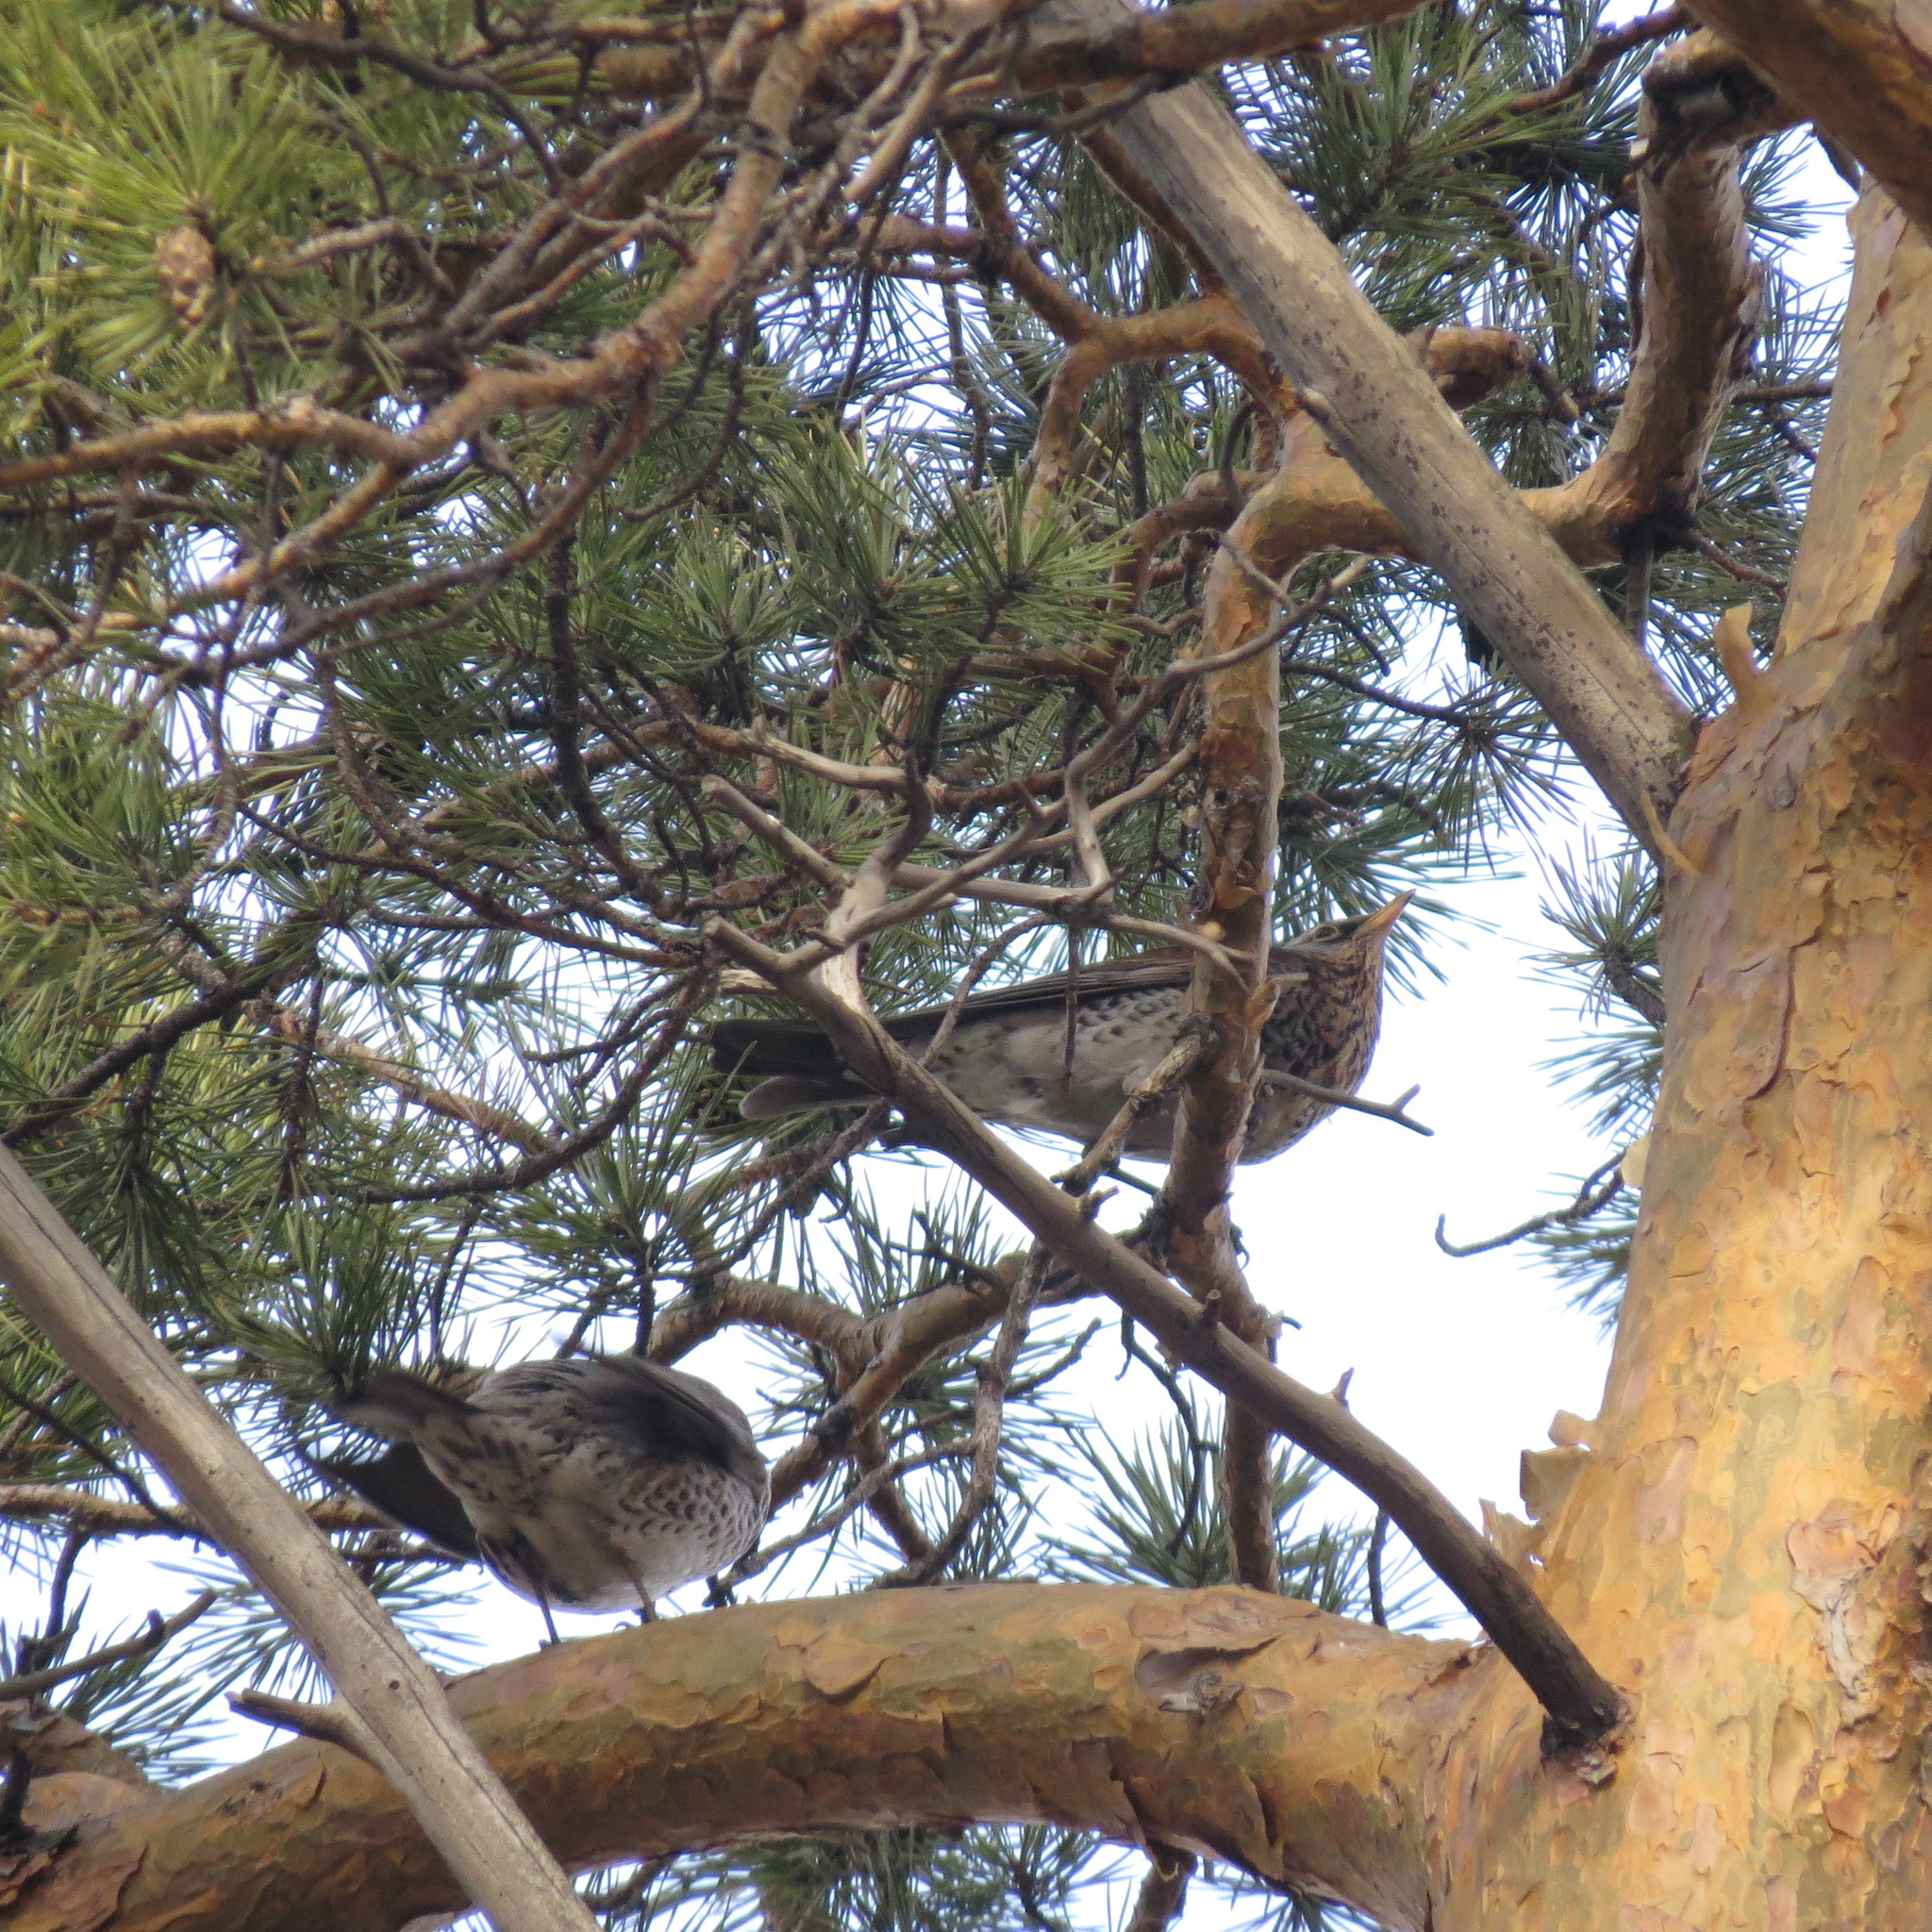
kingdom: Animalia
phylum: Chordata
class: Aves
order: Passeriformes
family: Turdidae
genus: Turdus
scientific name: Turdus pilaris
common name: Fieldfare
